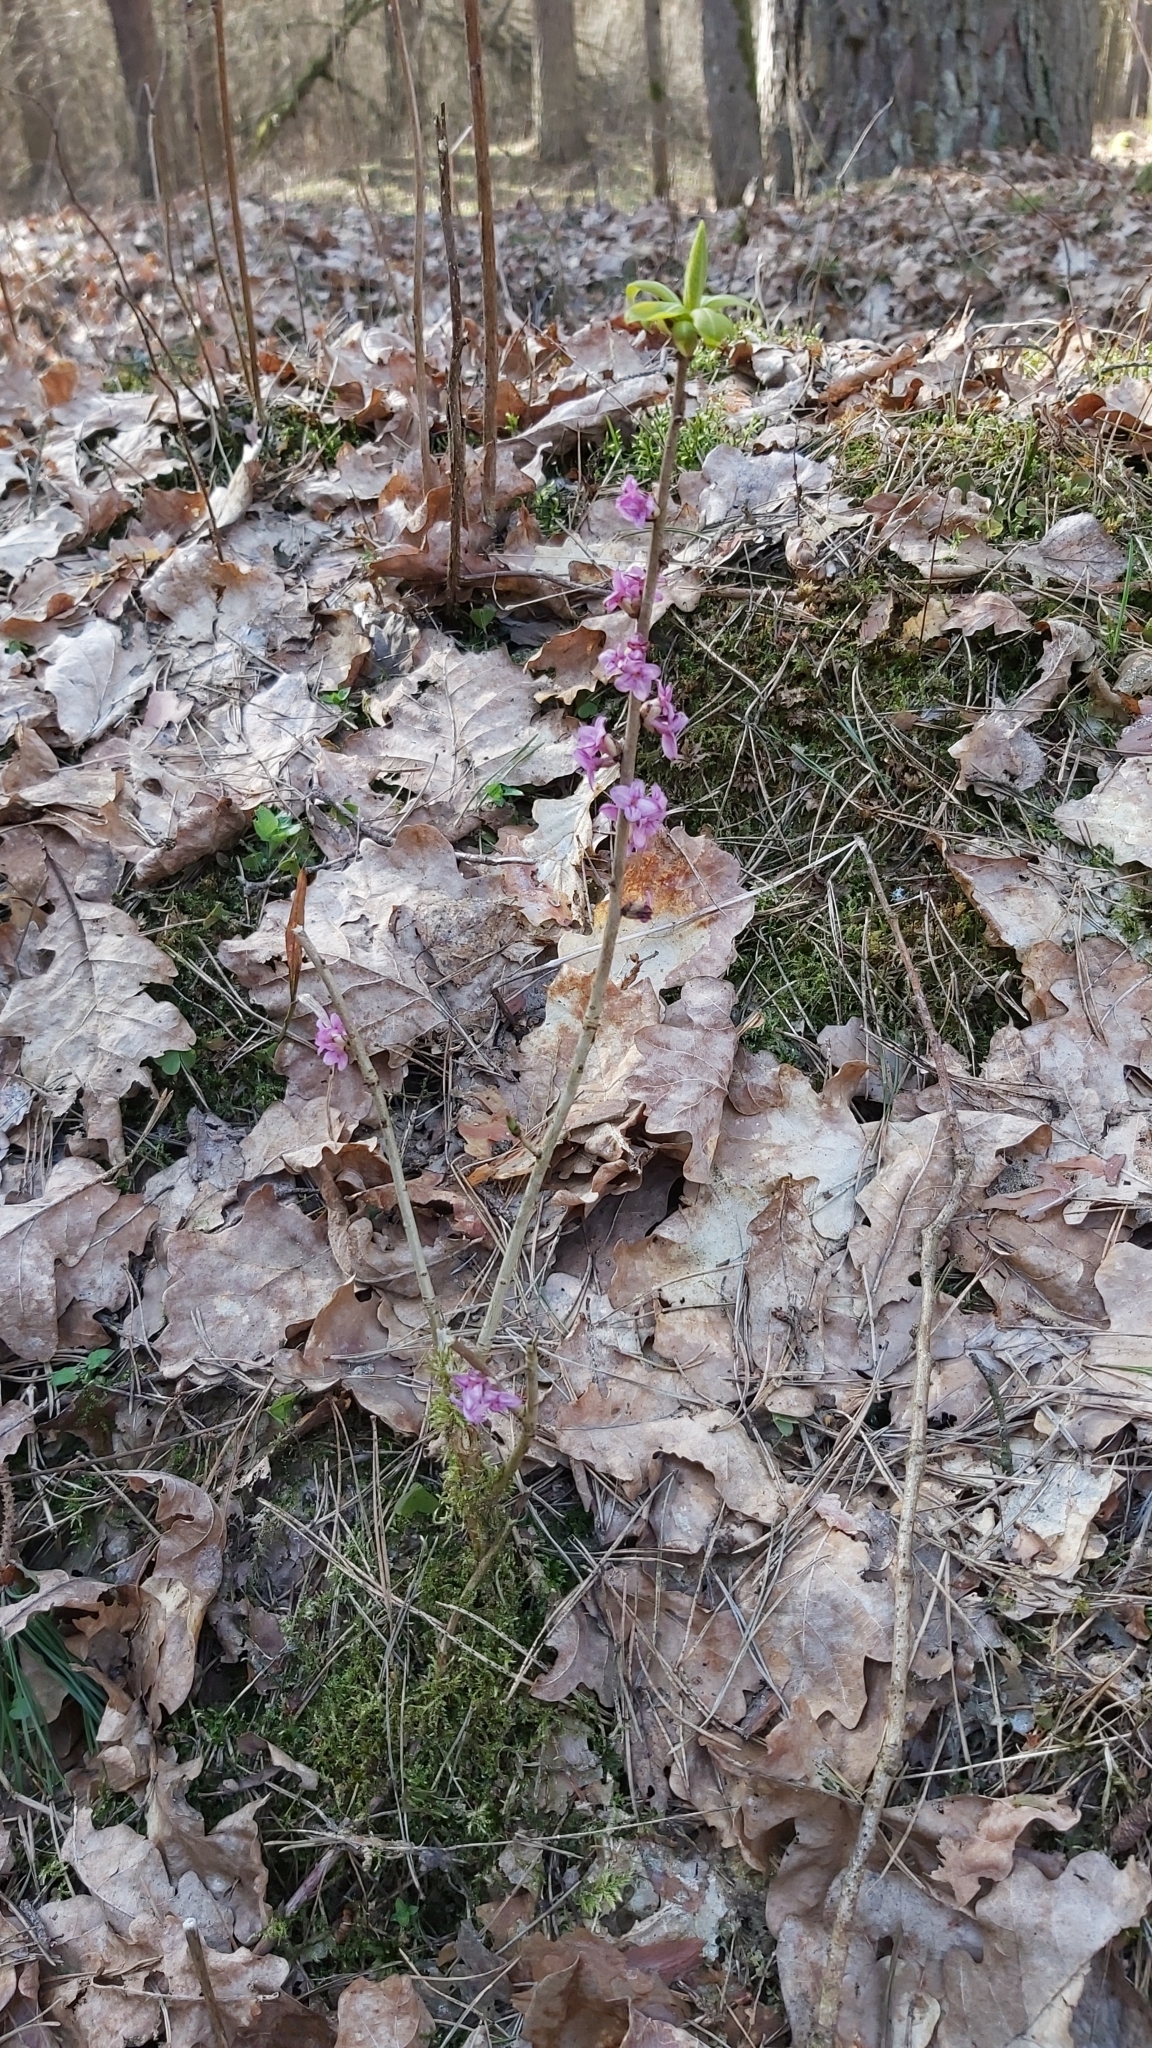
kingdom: Plantae
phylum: Tracheophyta
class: Magnoliopsida
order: Malvales
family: Thymelaeaceae
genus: Daphne
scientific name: Daphne mezereum
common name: Mezereon
